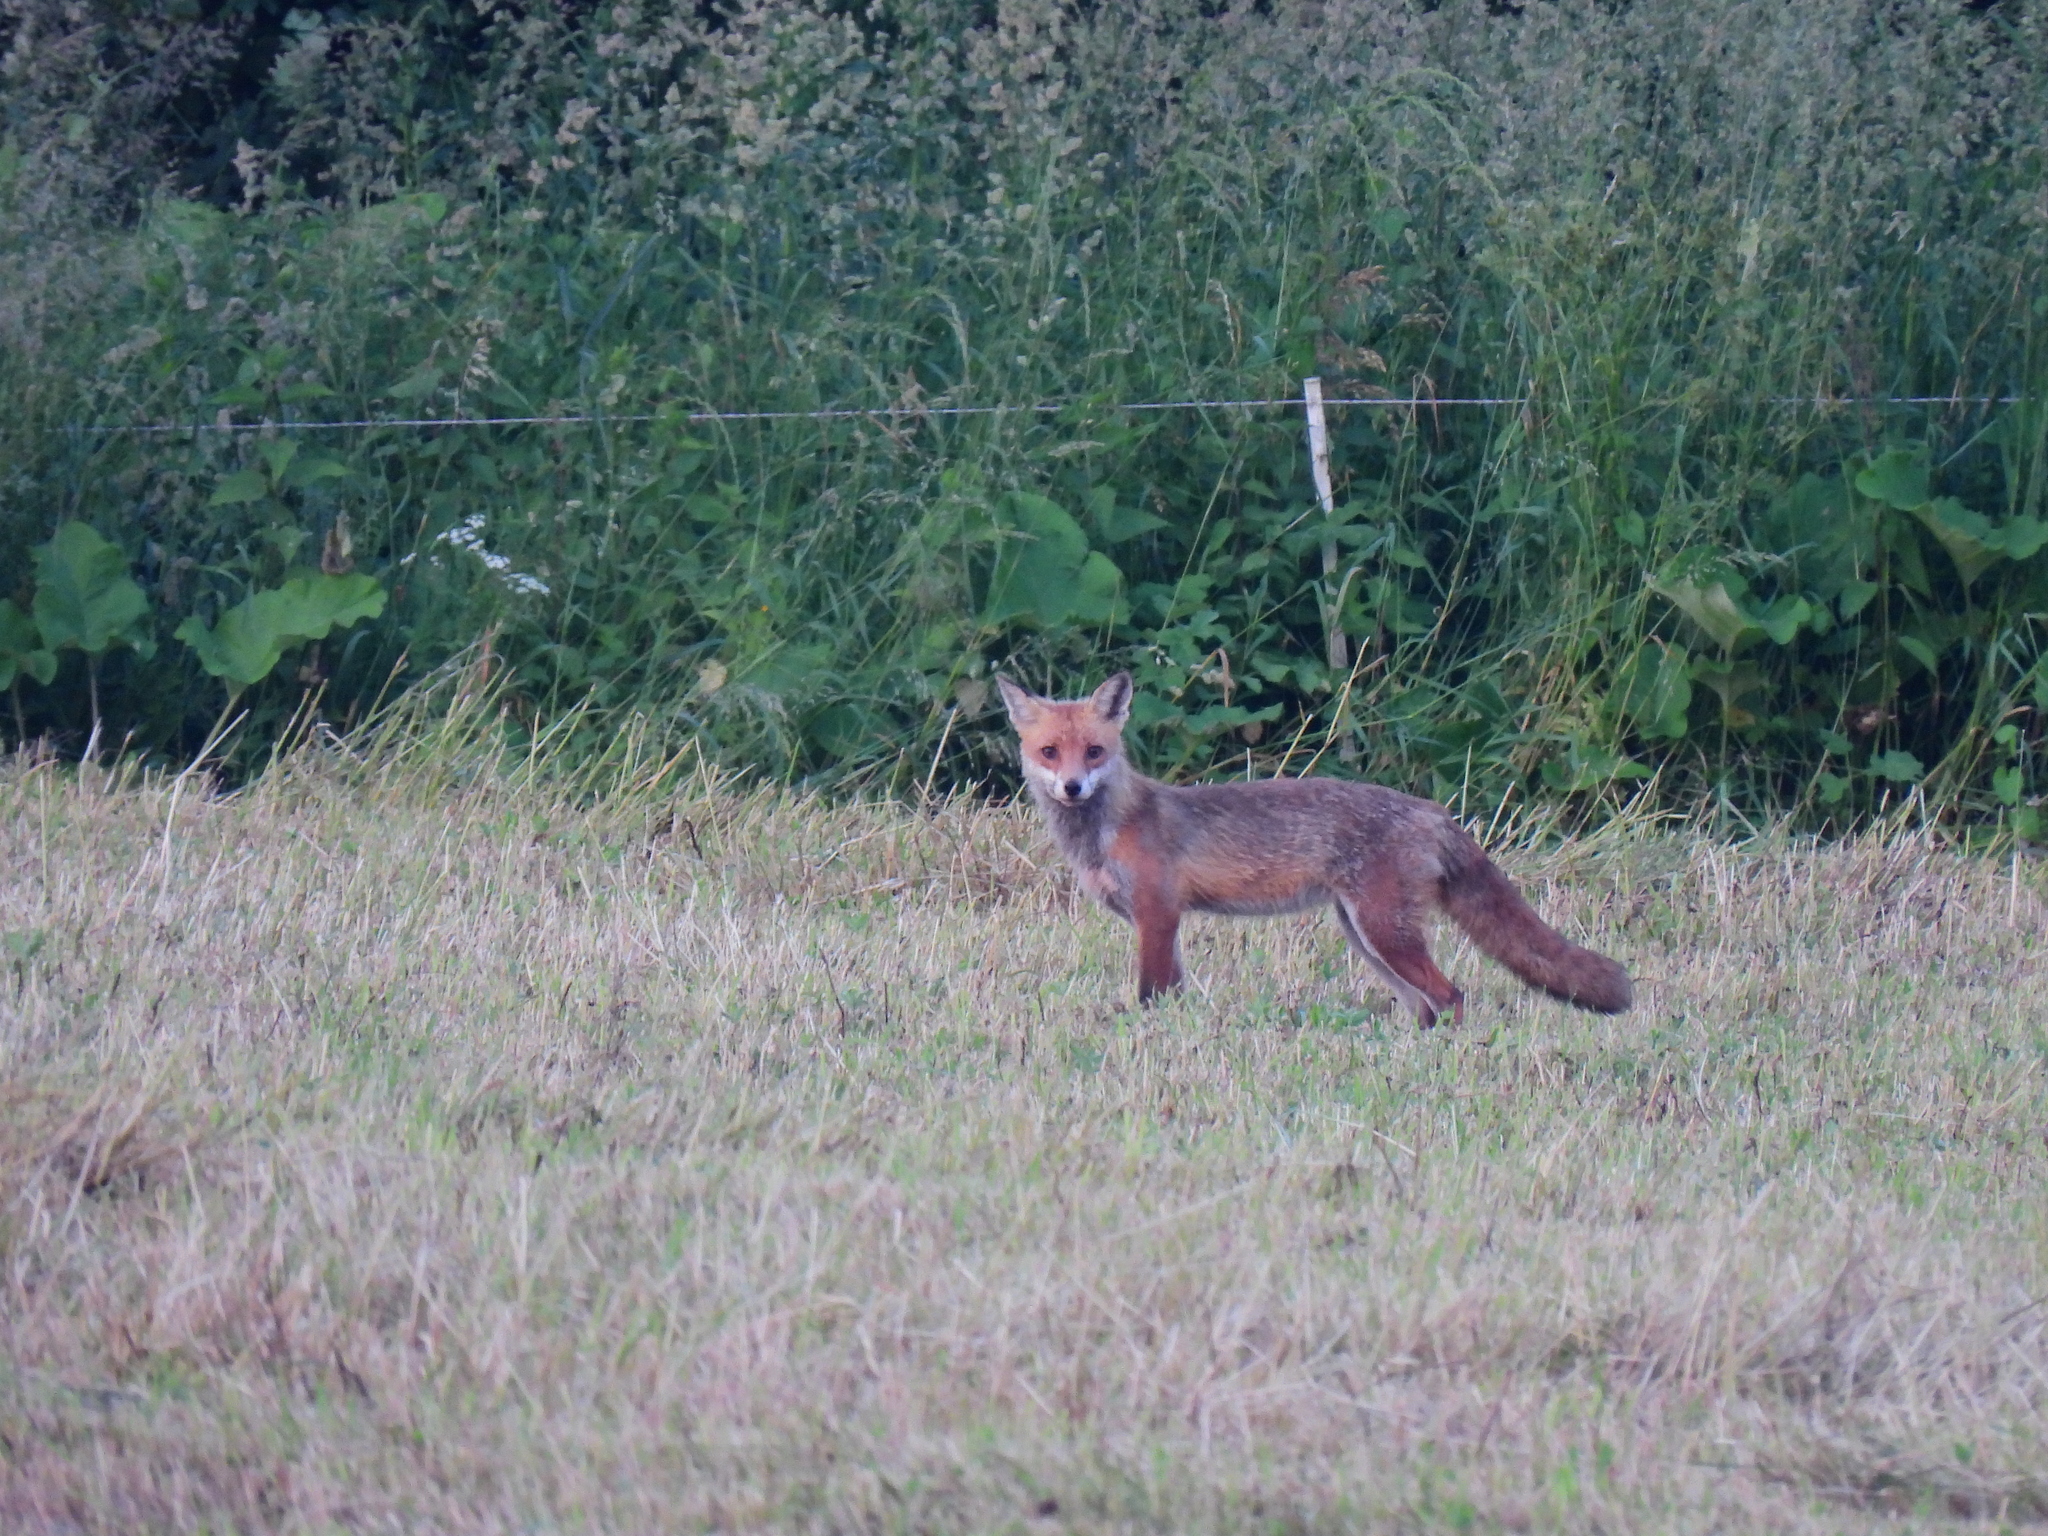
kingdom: Animalia
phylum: Chordata
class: Mammalia
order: Carnivora
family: Canidae
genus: Vulpes
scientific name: Vulpes vulpes
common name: Red fox
